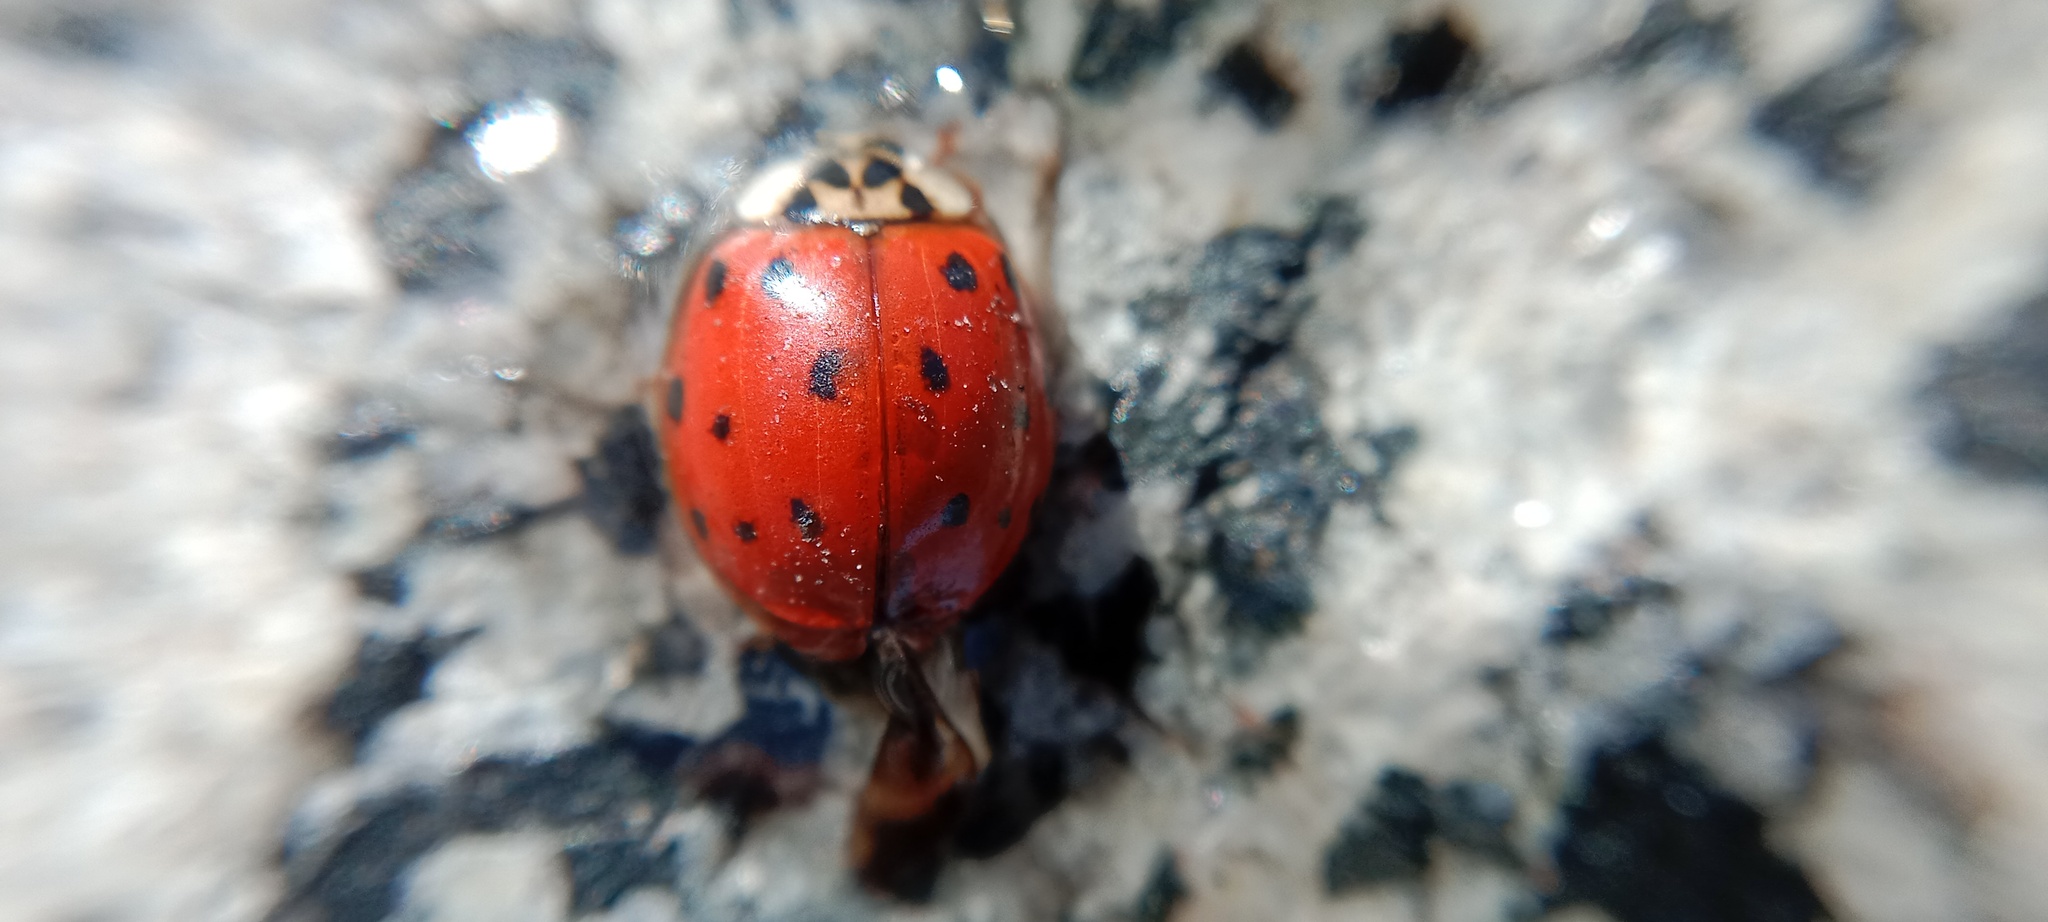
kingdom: Animalia
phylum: Arthropoda
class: Insecta
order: Coleoptera
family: Coccinellidae
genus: Harmonia
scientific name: Harmonia axyridis
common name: Harlequin ladybird
